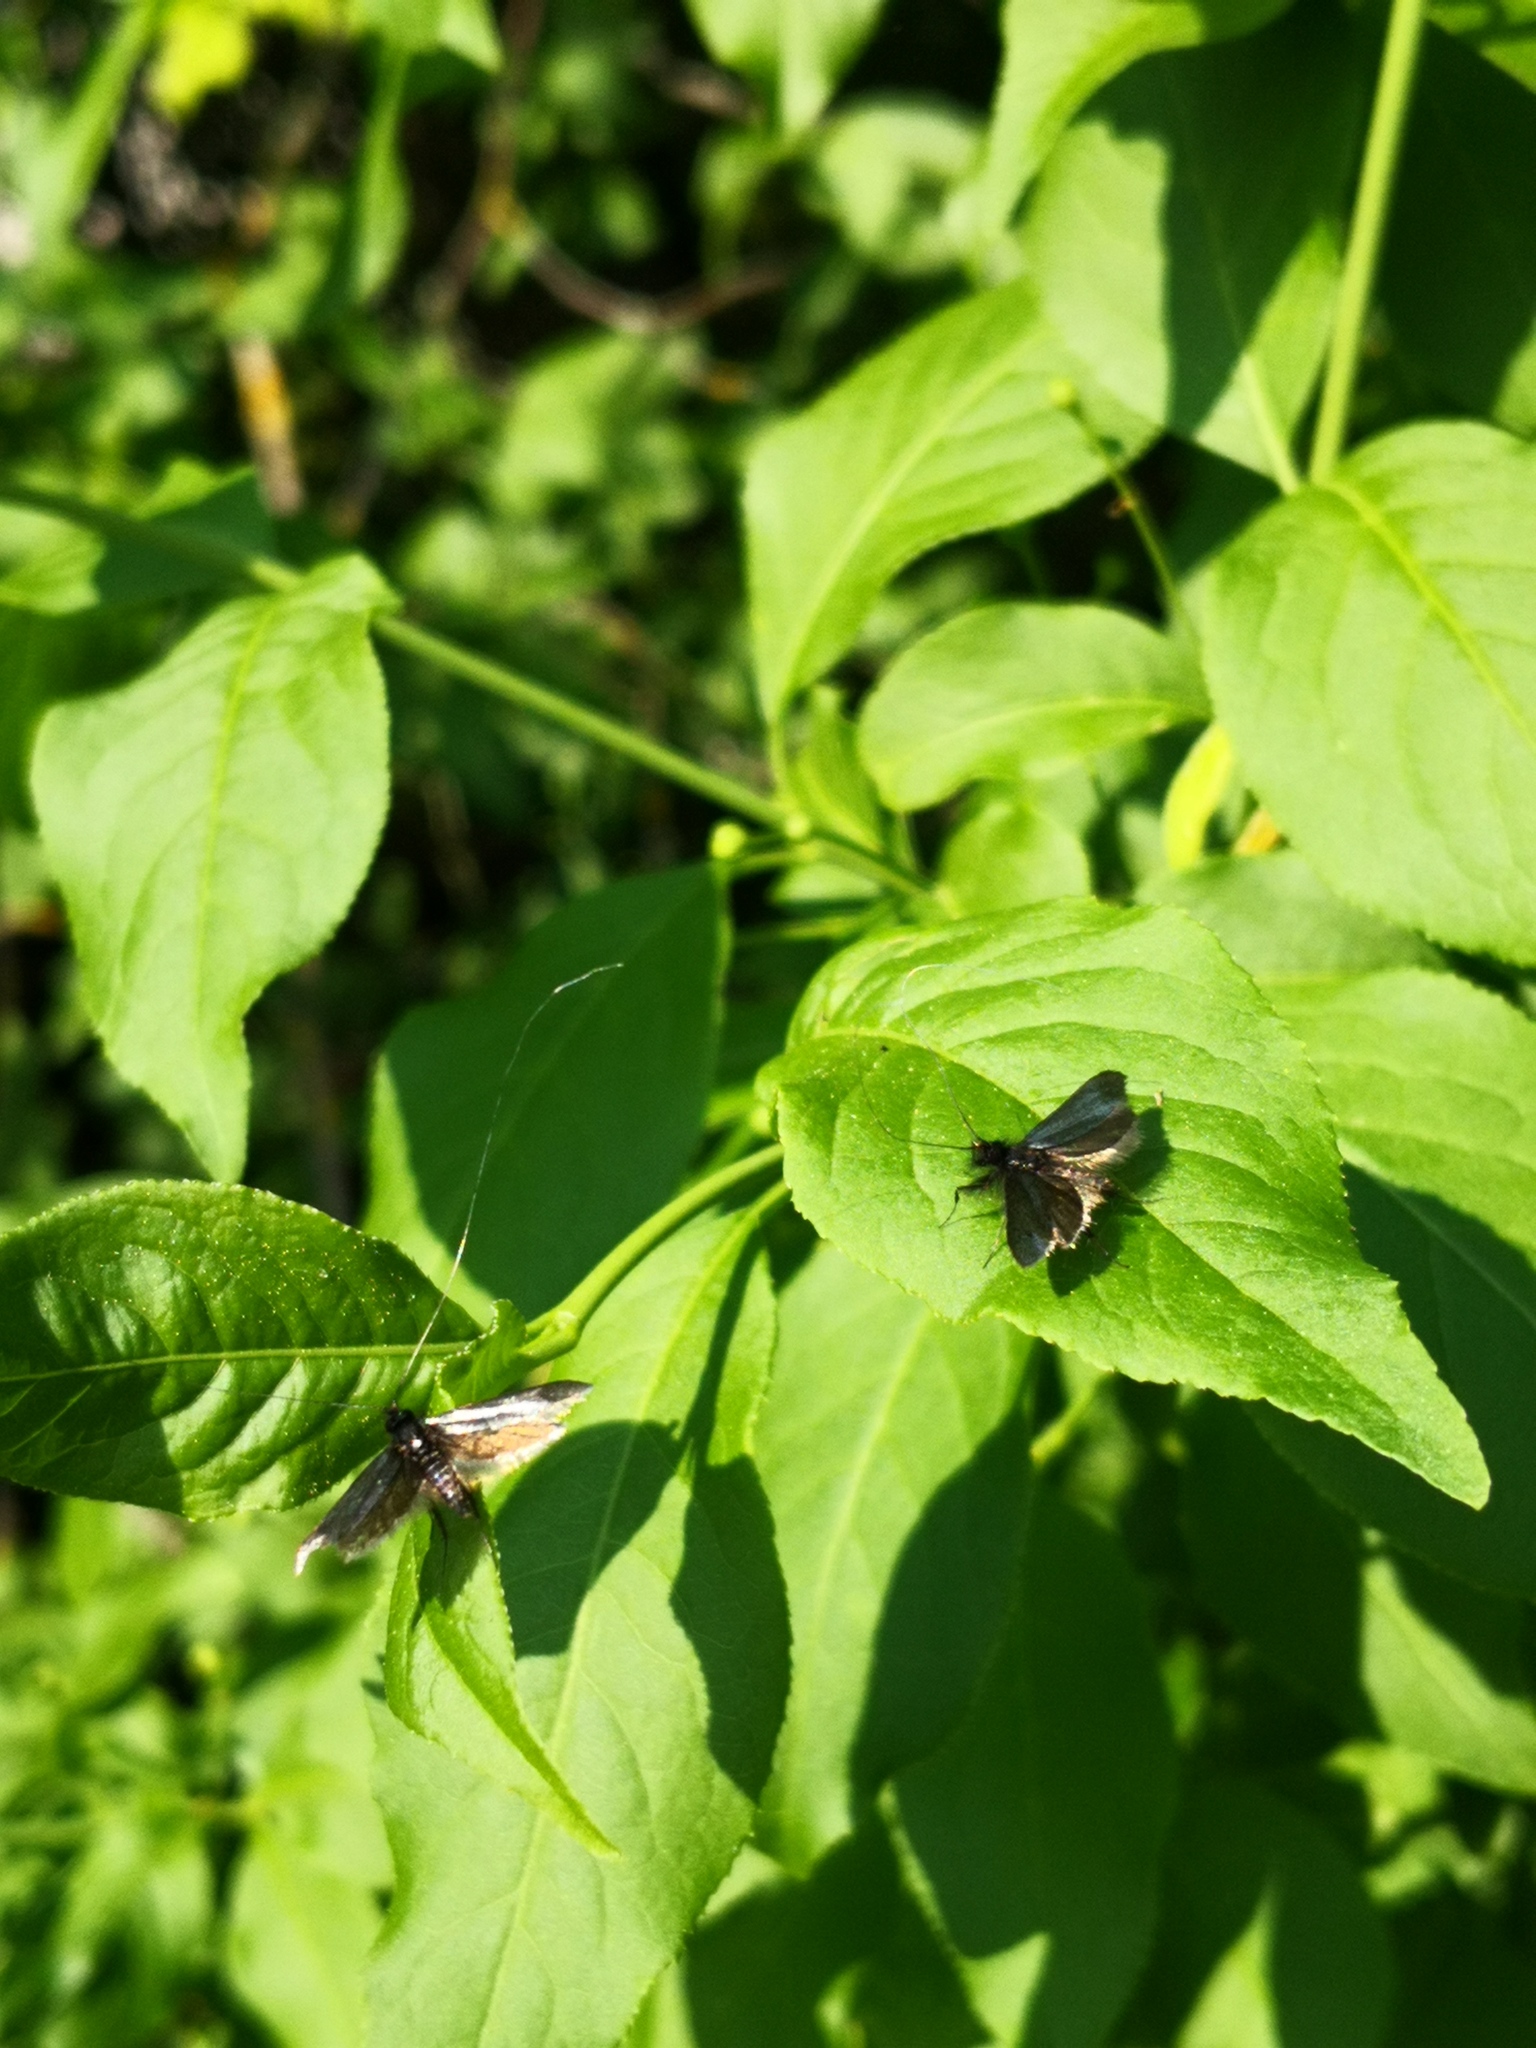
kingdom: Animalia
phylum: Arthropoda
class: Insecta
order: Lepidoptera
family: Adelidae
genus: Adela
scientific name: Adela viridella
